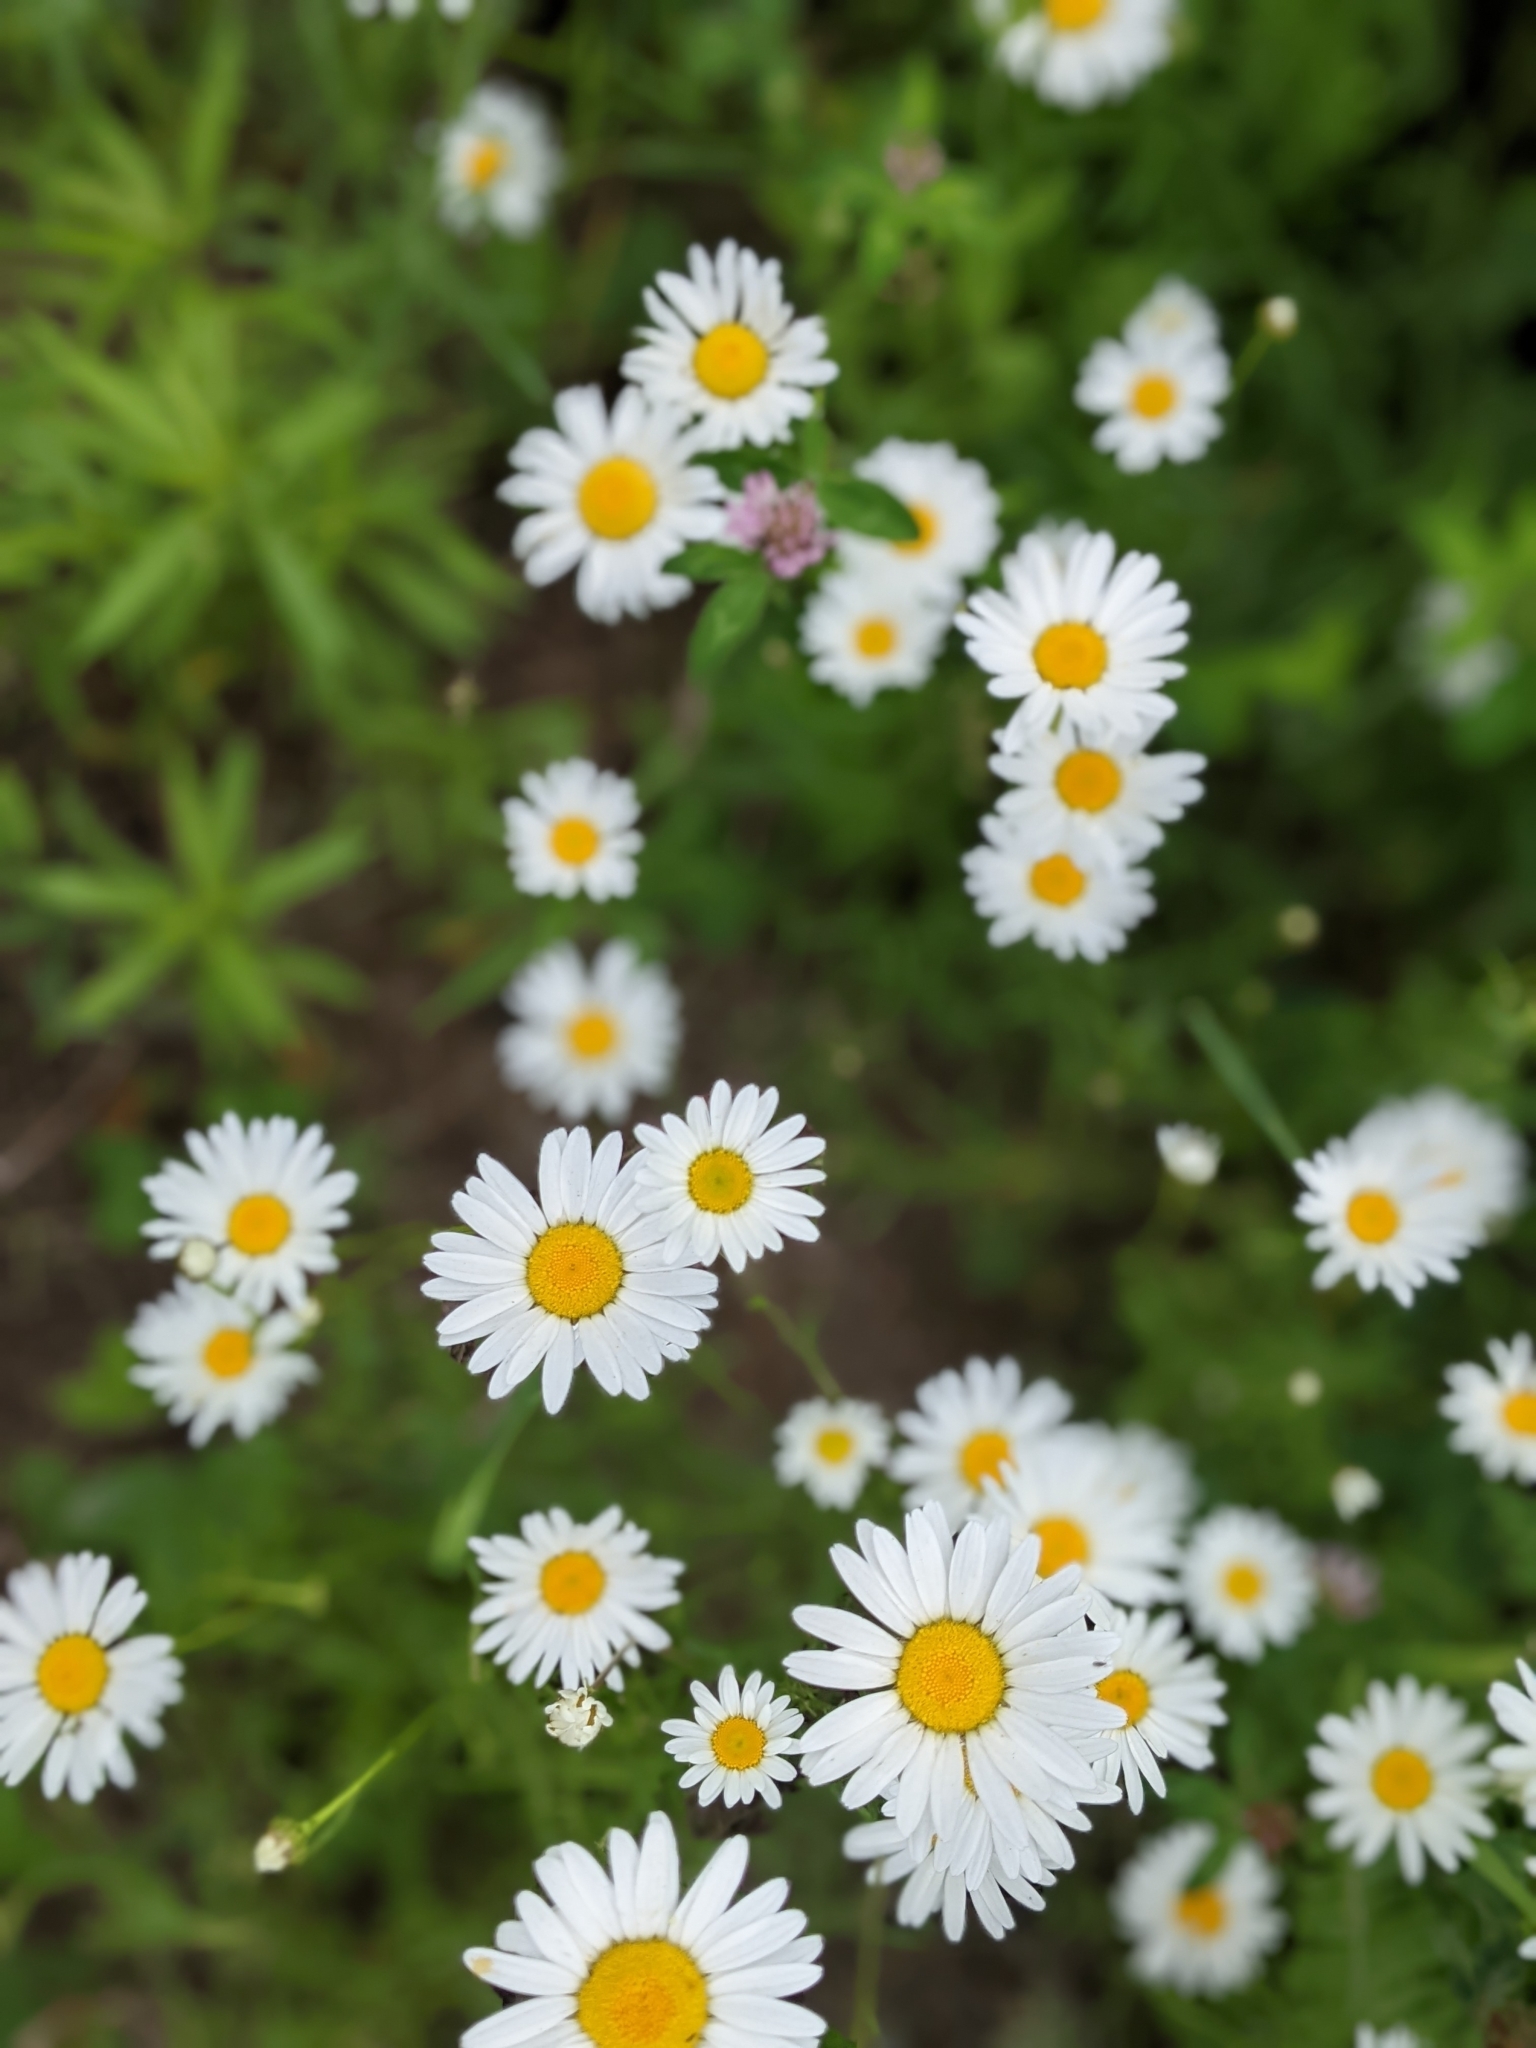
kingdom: Plantae
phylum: Tracheophyta
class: Magnoliopsida
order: Asterales
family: Asteraceae
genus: Bellis
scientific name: Bellis perennis
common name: Lawndaisy
